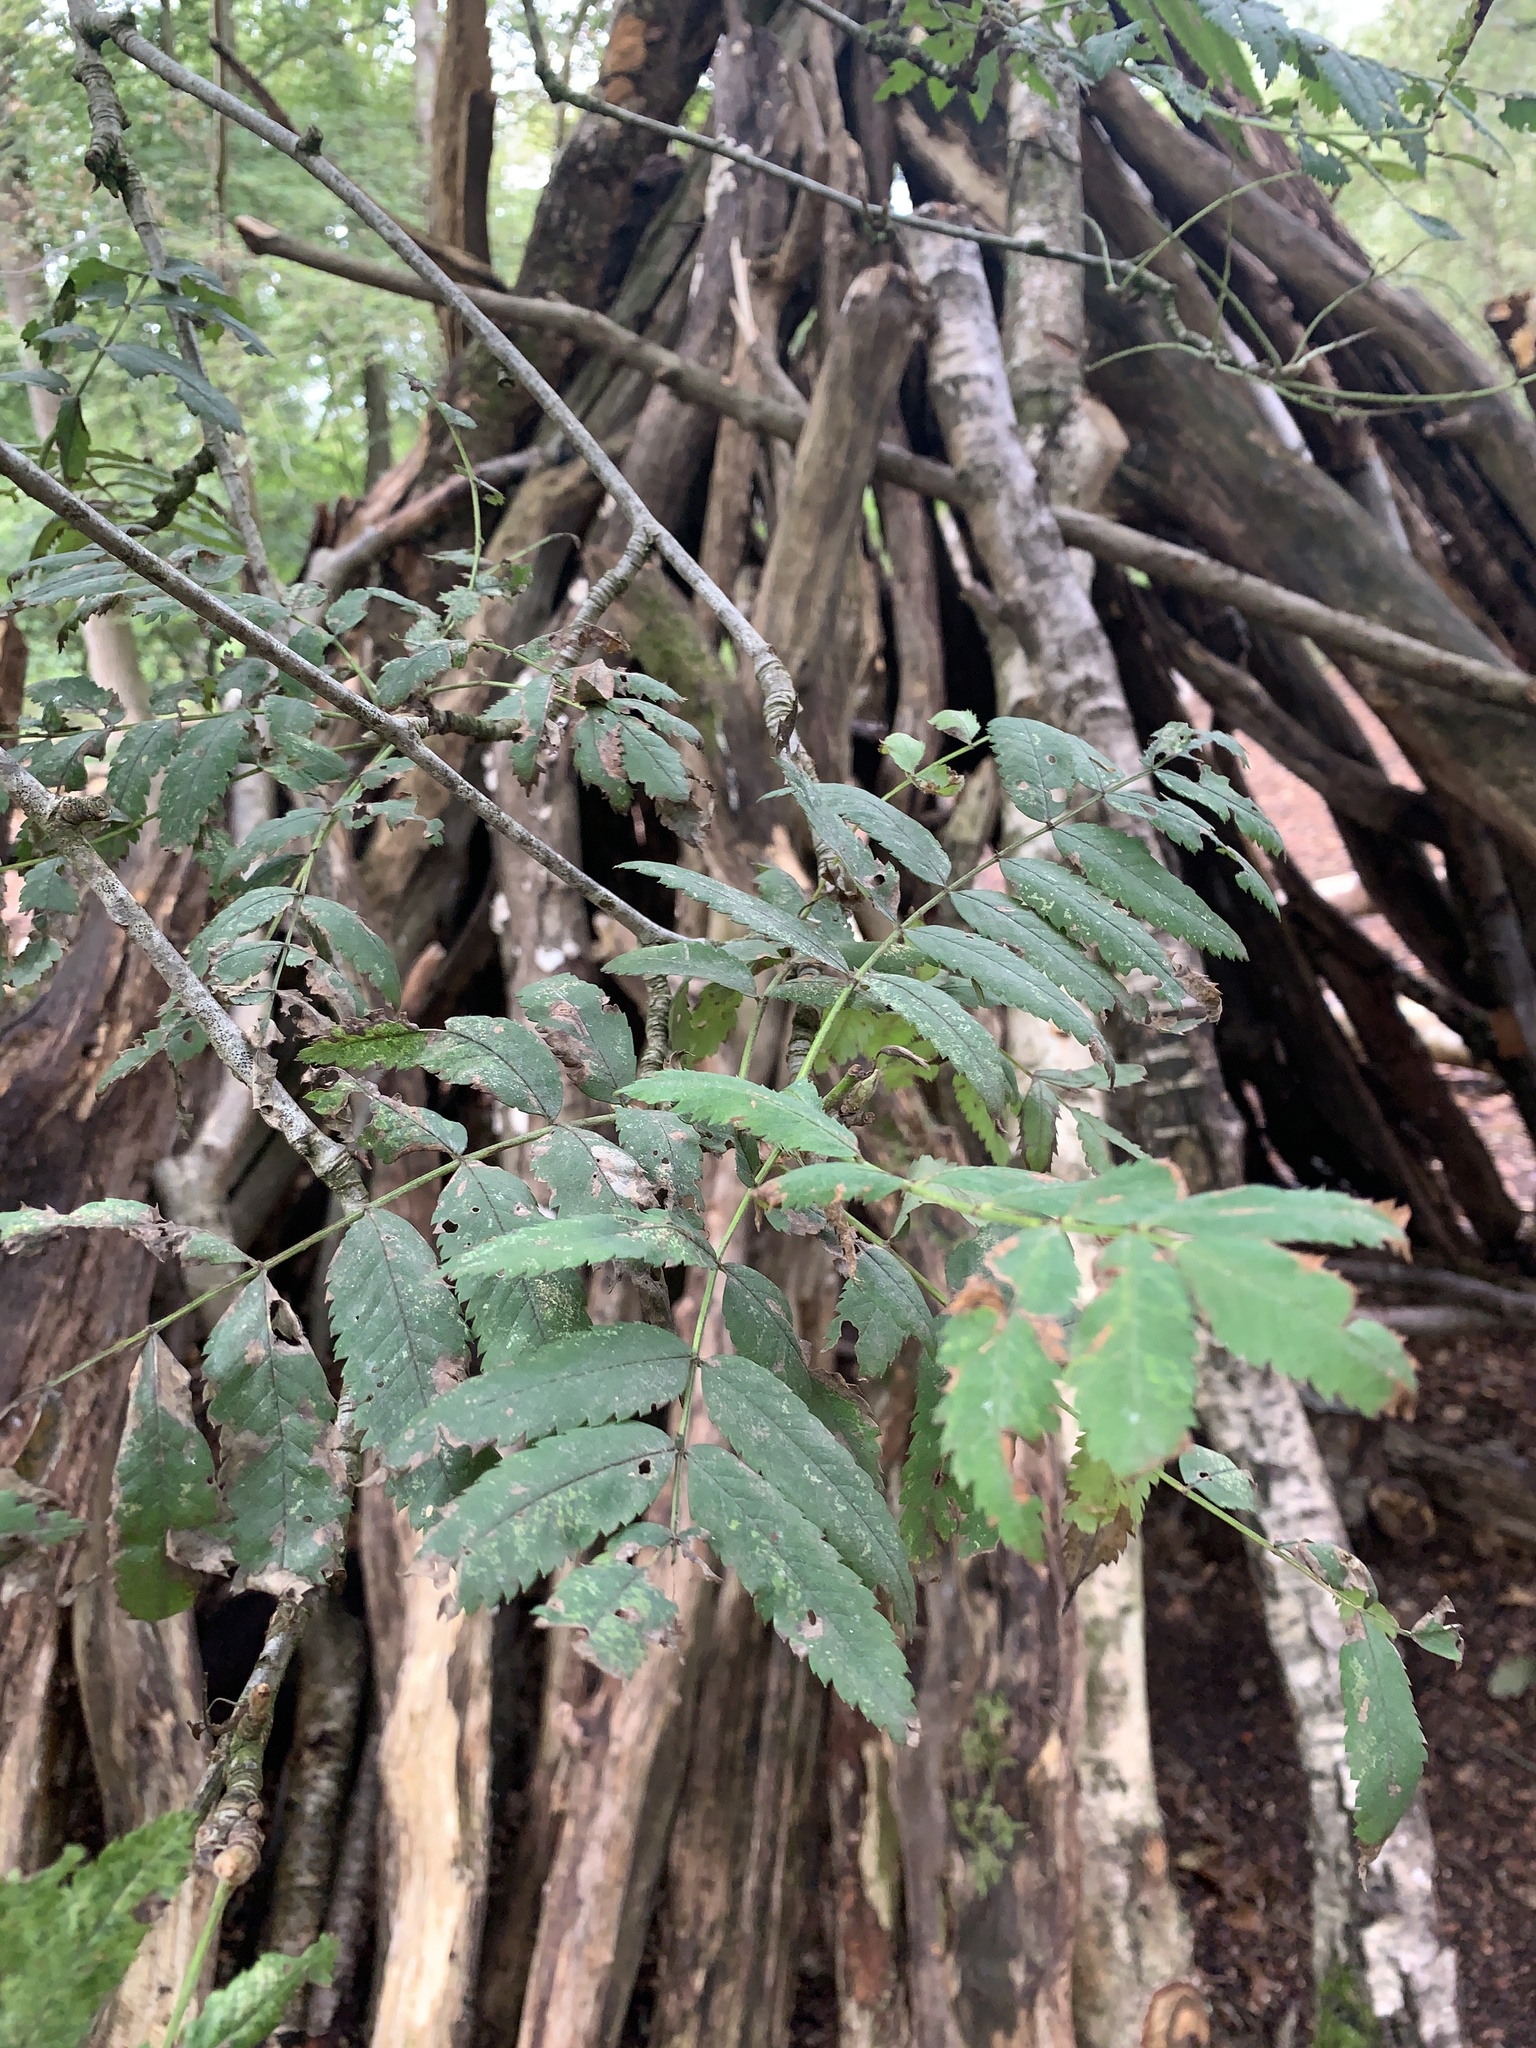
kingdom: Plantae
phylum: Tracheophyta
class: Magnoliopsida
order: Rosales
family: Rosaceae
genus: Sorbus
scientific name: Sorbus aucuparia
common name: Rowan
